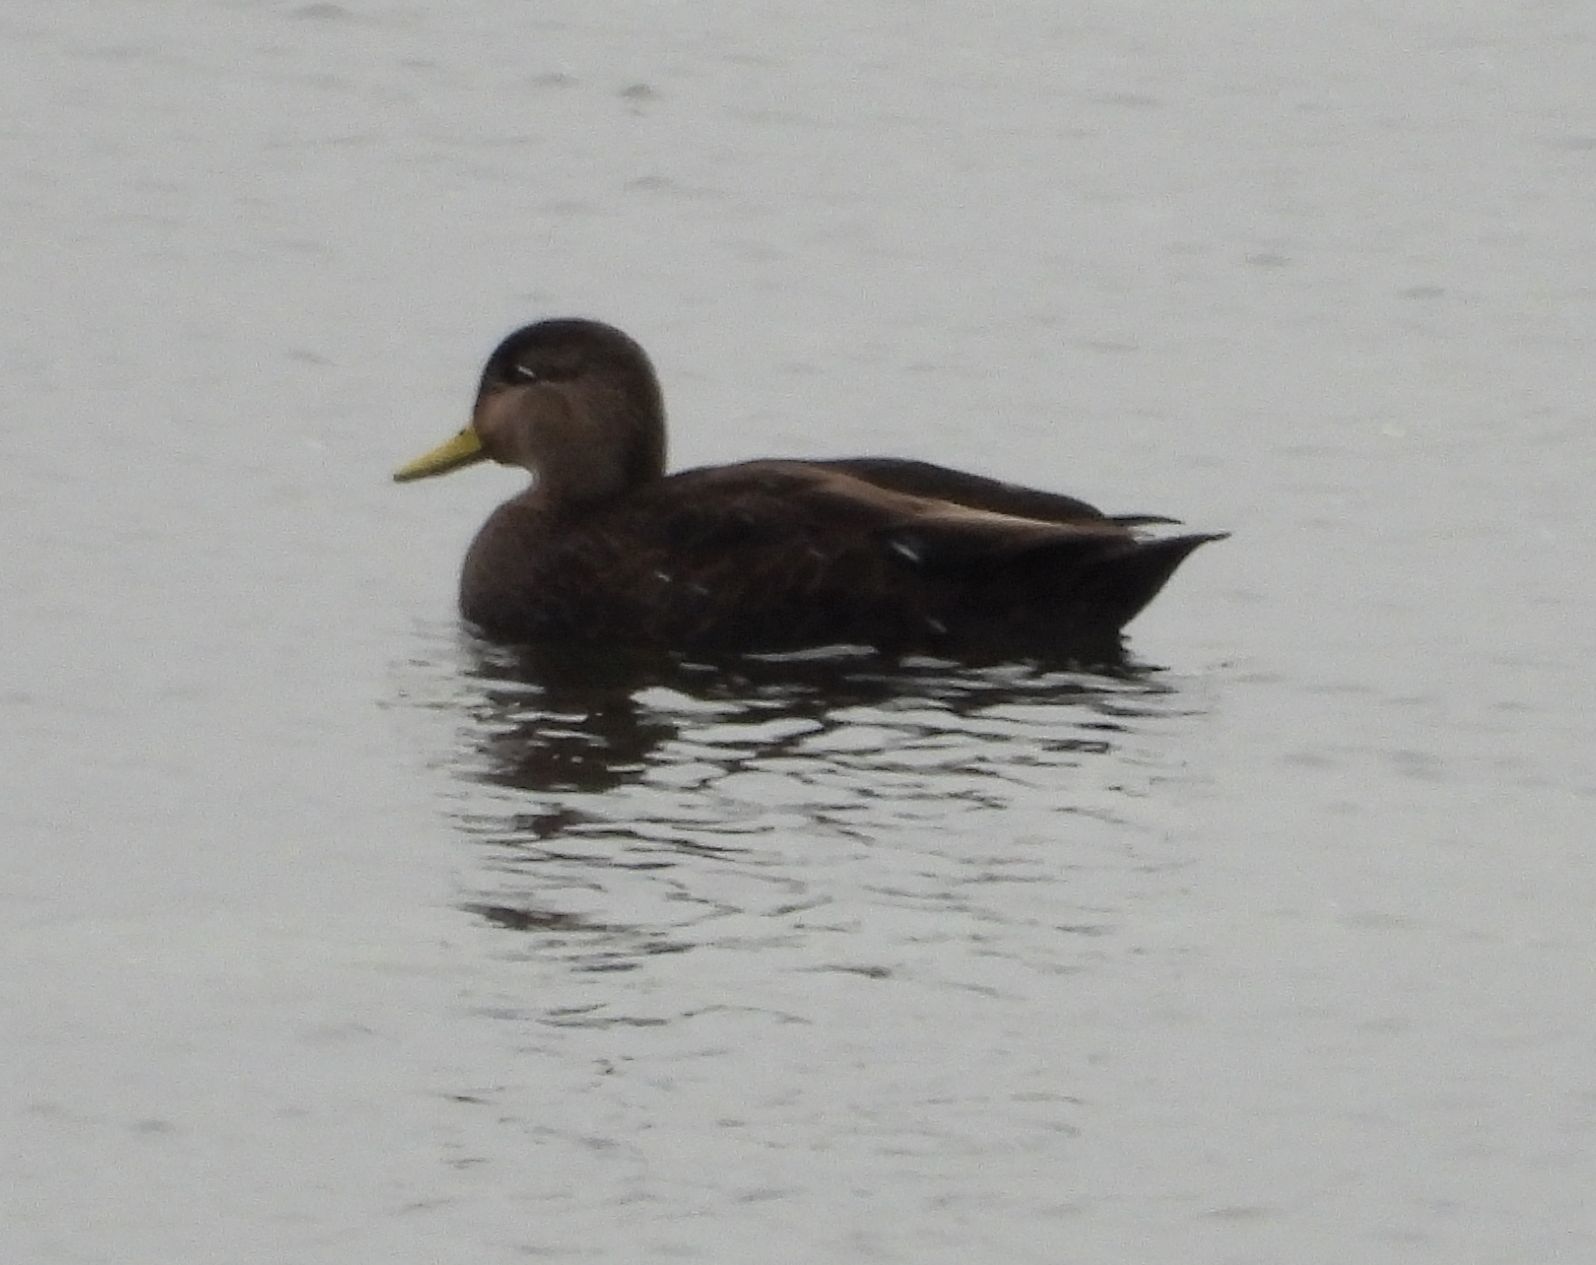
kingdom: Animalia
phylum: Chordata
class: Aves
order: Anseriformes
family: Anatidae
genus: Anas
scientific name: Anas rubripes
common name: American black duck
